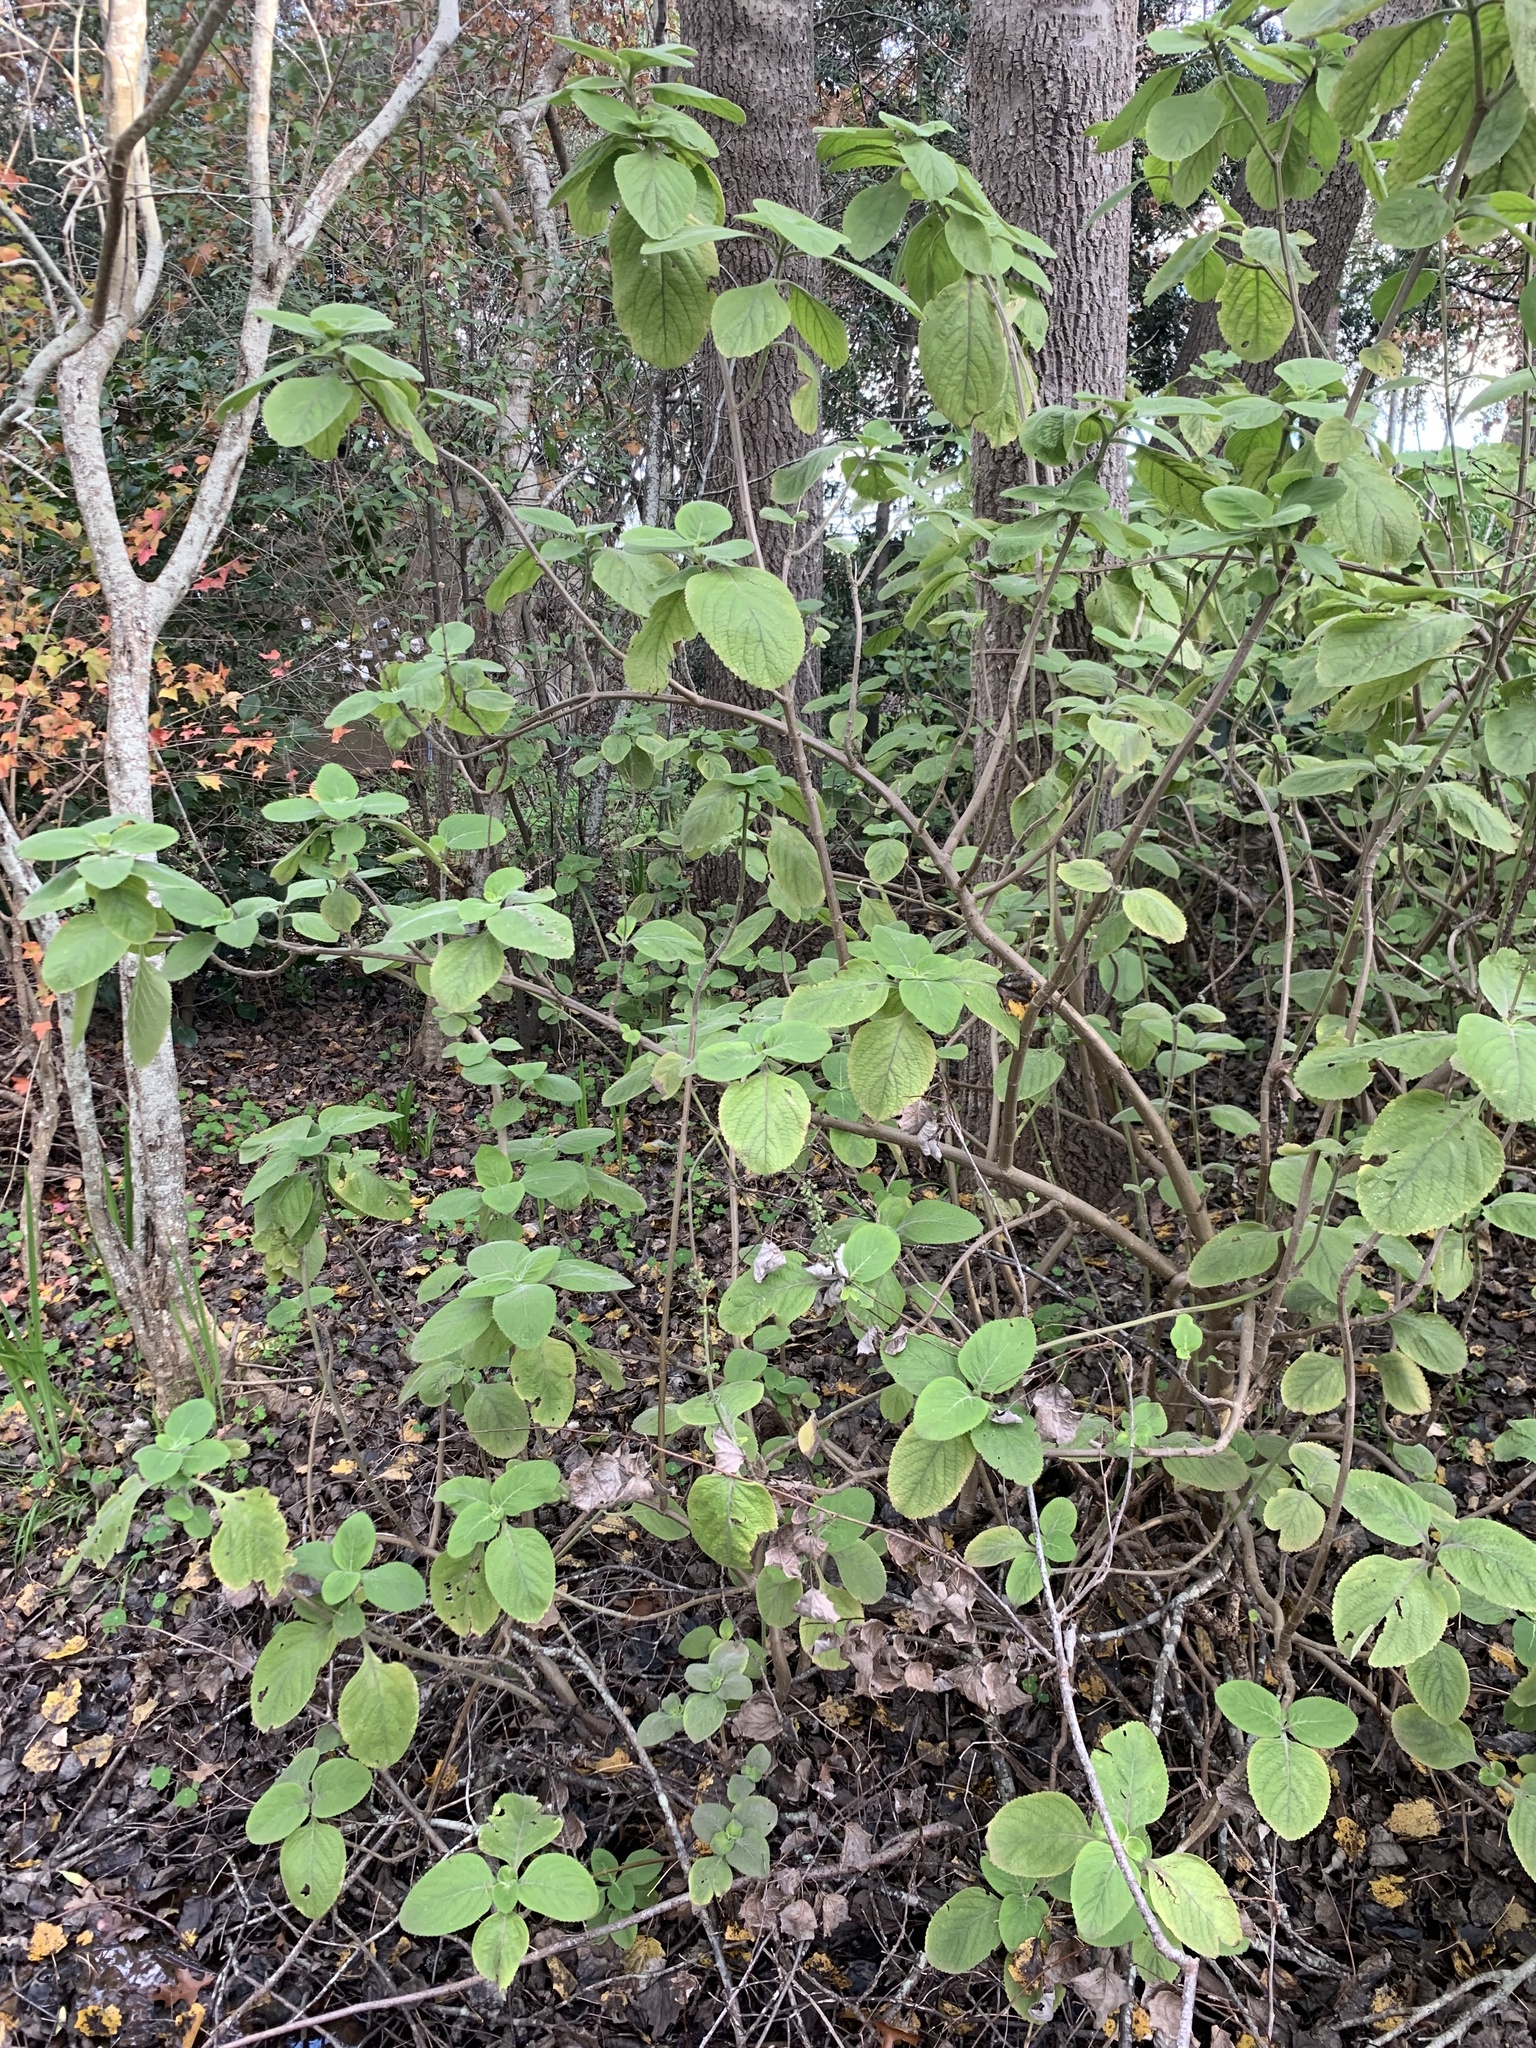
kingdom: Plantae
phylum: Tracheophyta
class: Magnoliopsida
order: Lamiales
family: Lamiaceae
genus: Coleus
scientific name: Coleus barbatus
